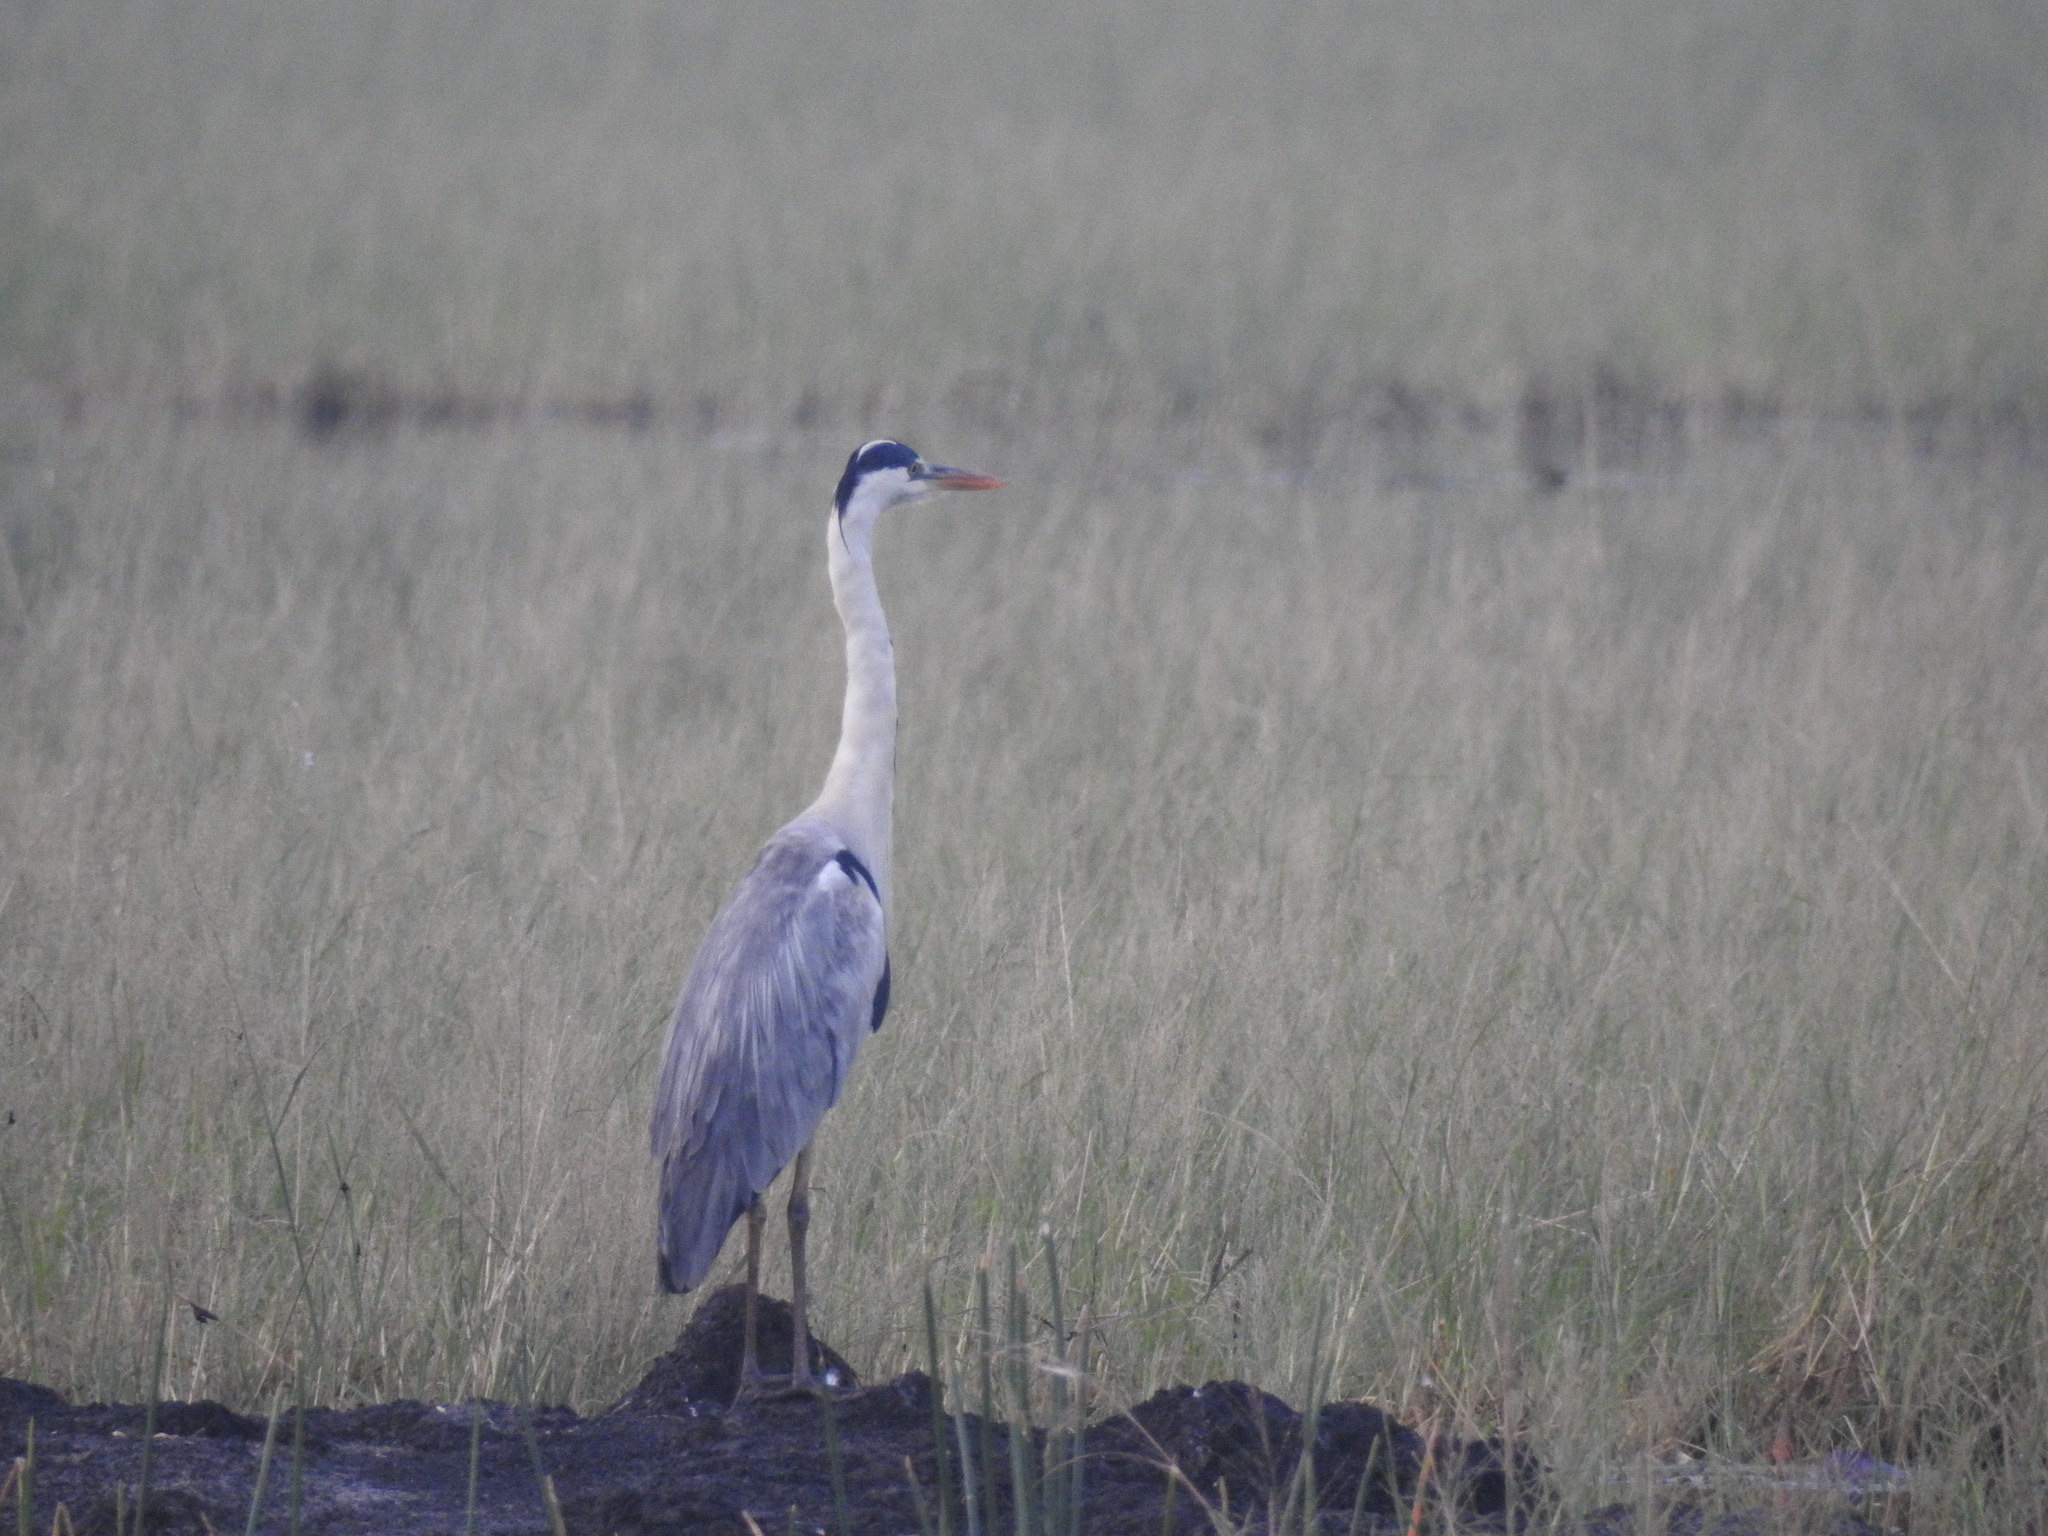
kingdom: Animalia
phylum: Chordata
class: Aves
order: Pelecaniformes
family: Ardeidae
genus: Ardea
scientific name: Ardea cinerea
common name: Grey heron
